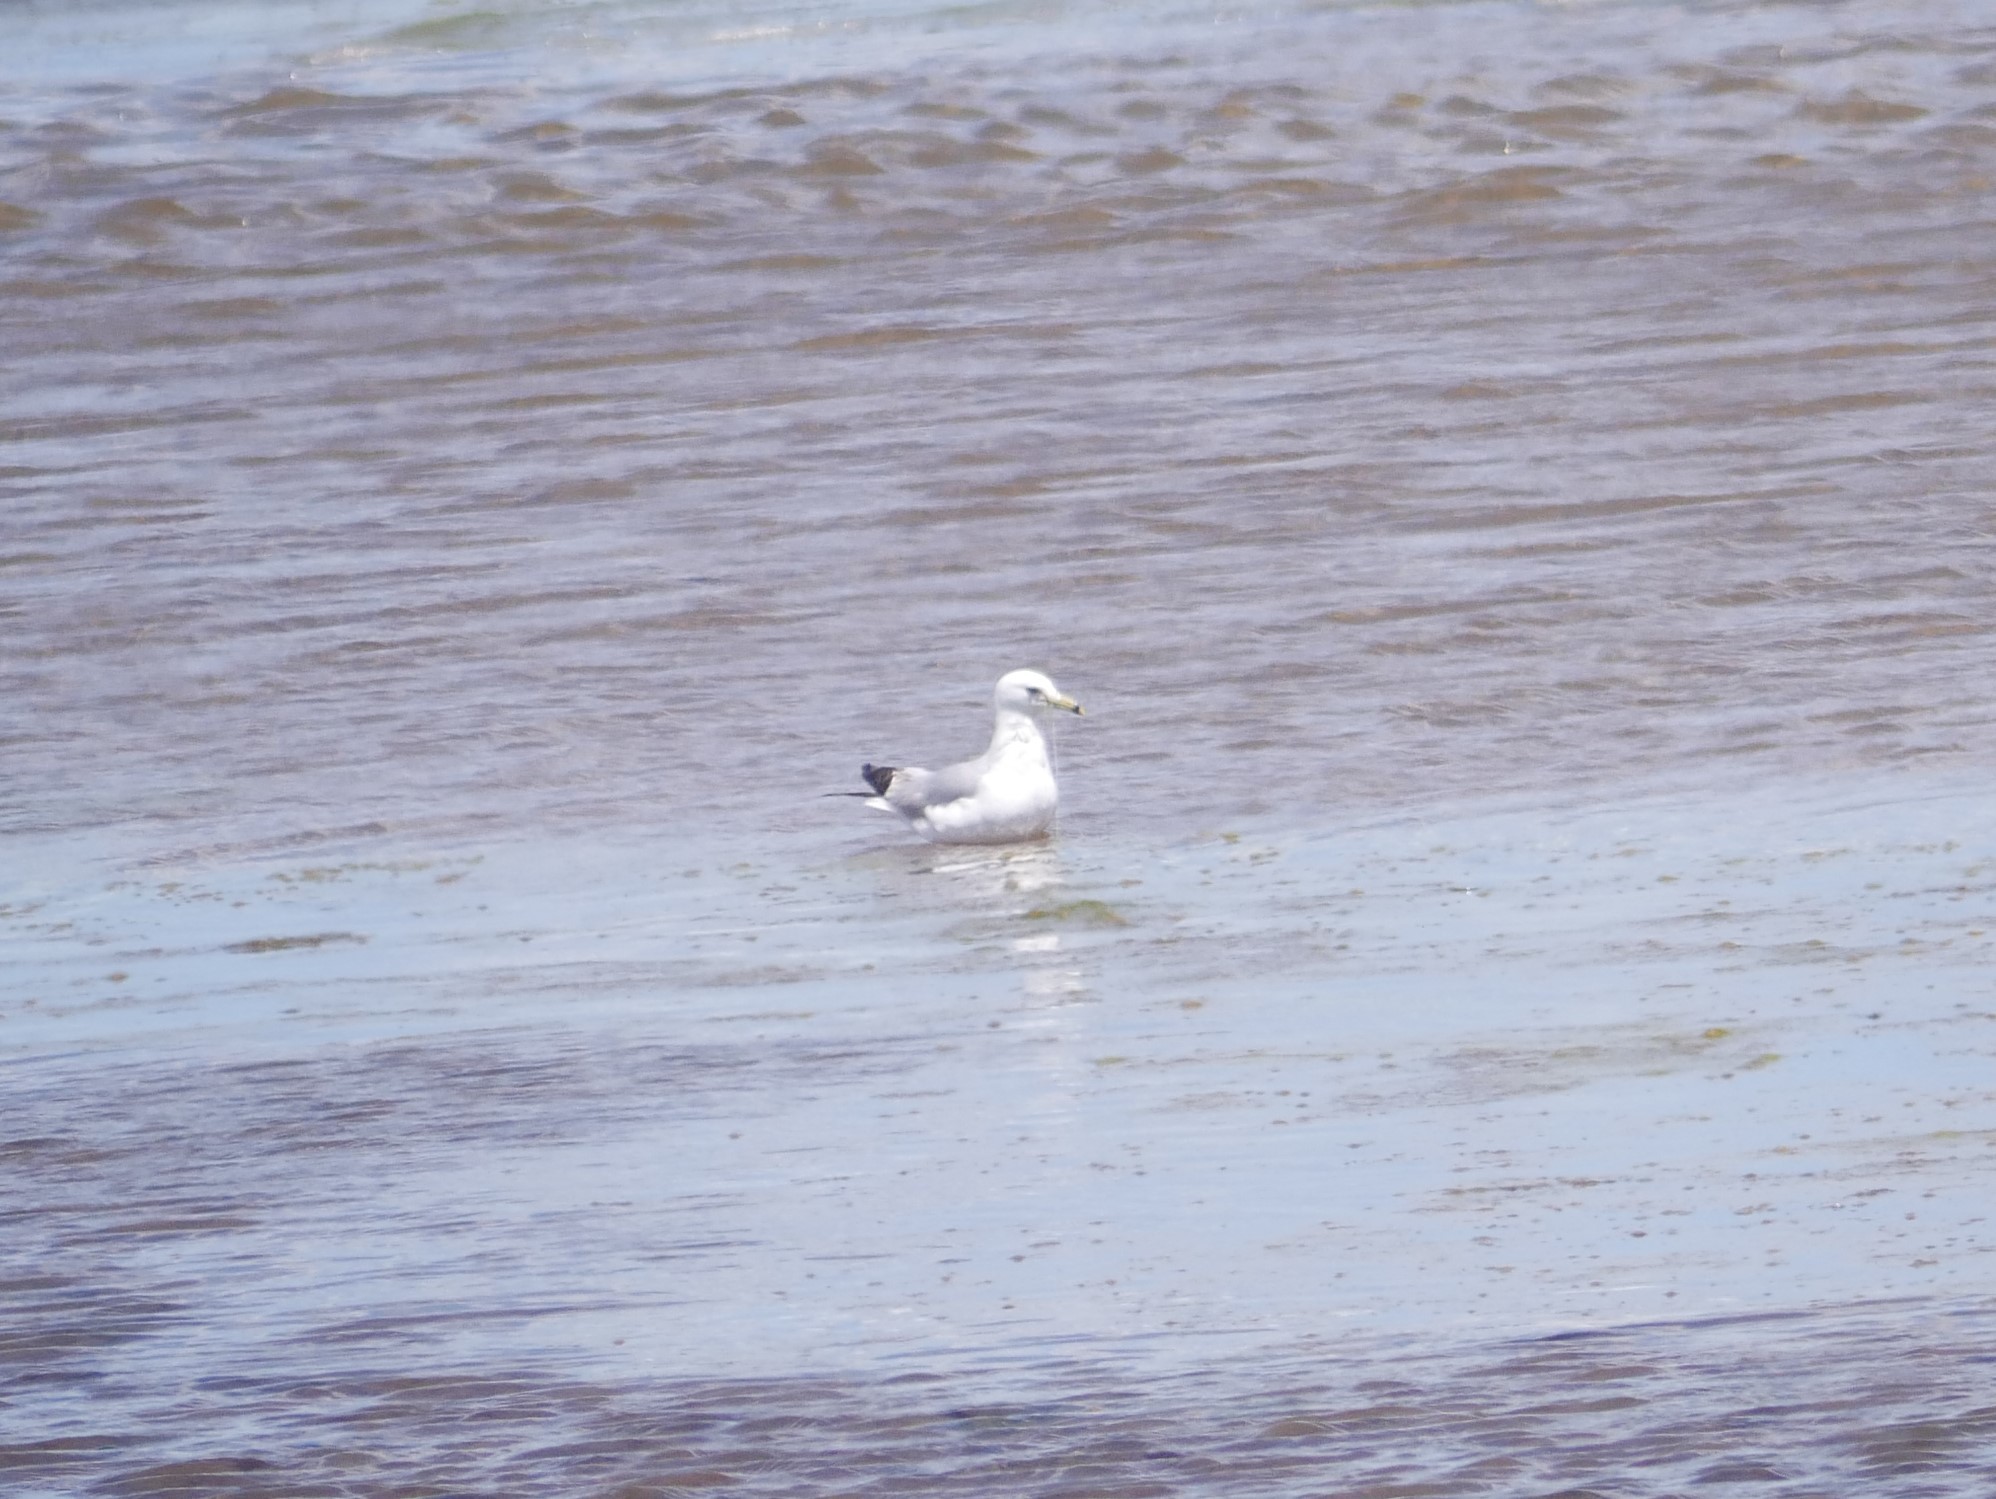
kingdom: Animalia
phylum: Chordata
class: Aves
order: Charadriiformes
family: Laridae
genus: Larus
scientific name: Larus delawarensis
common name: Ring-billed gull
